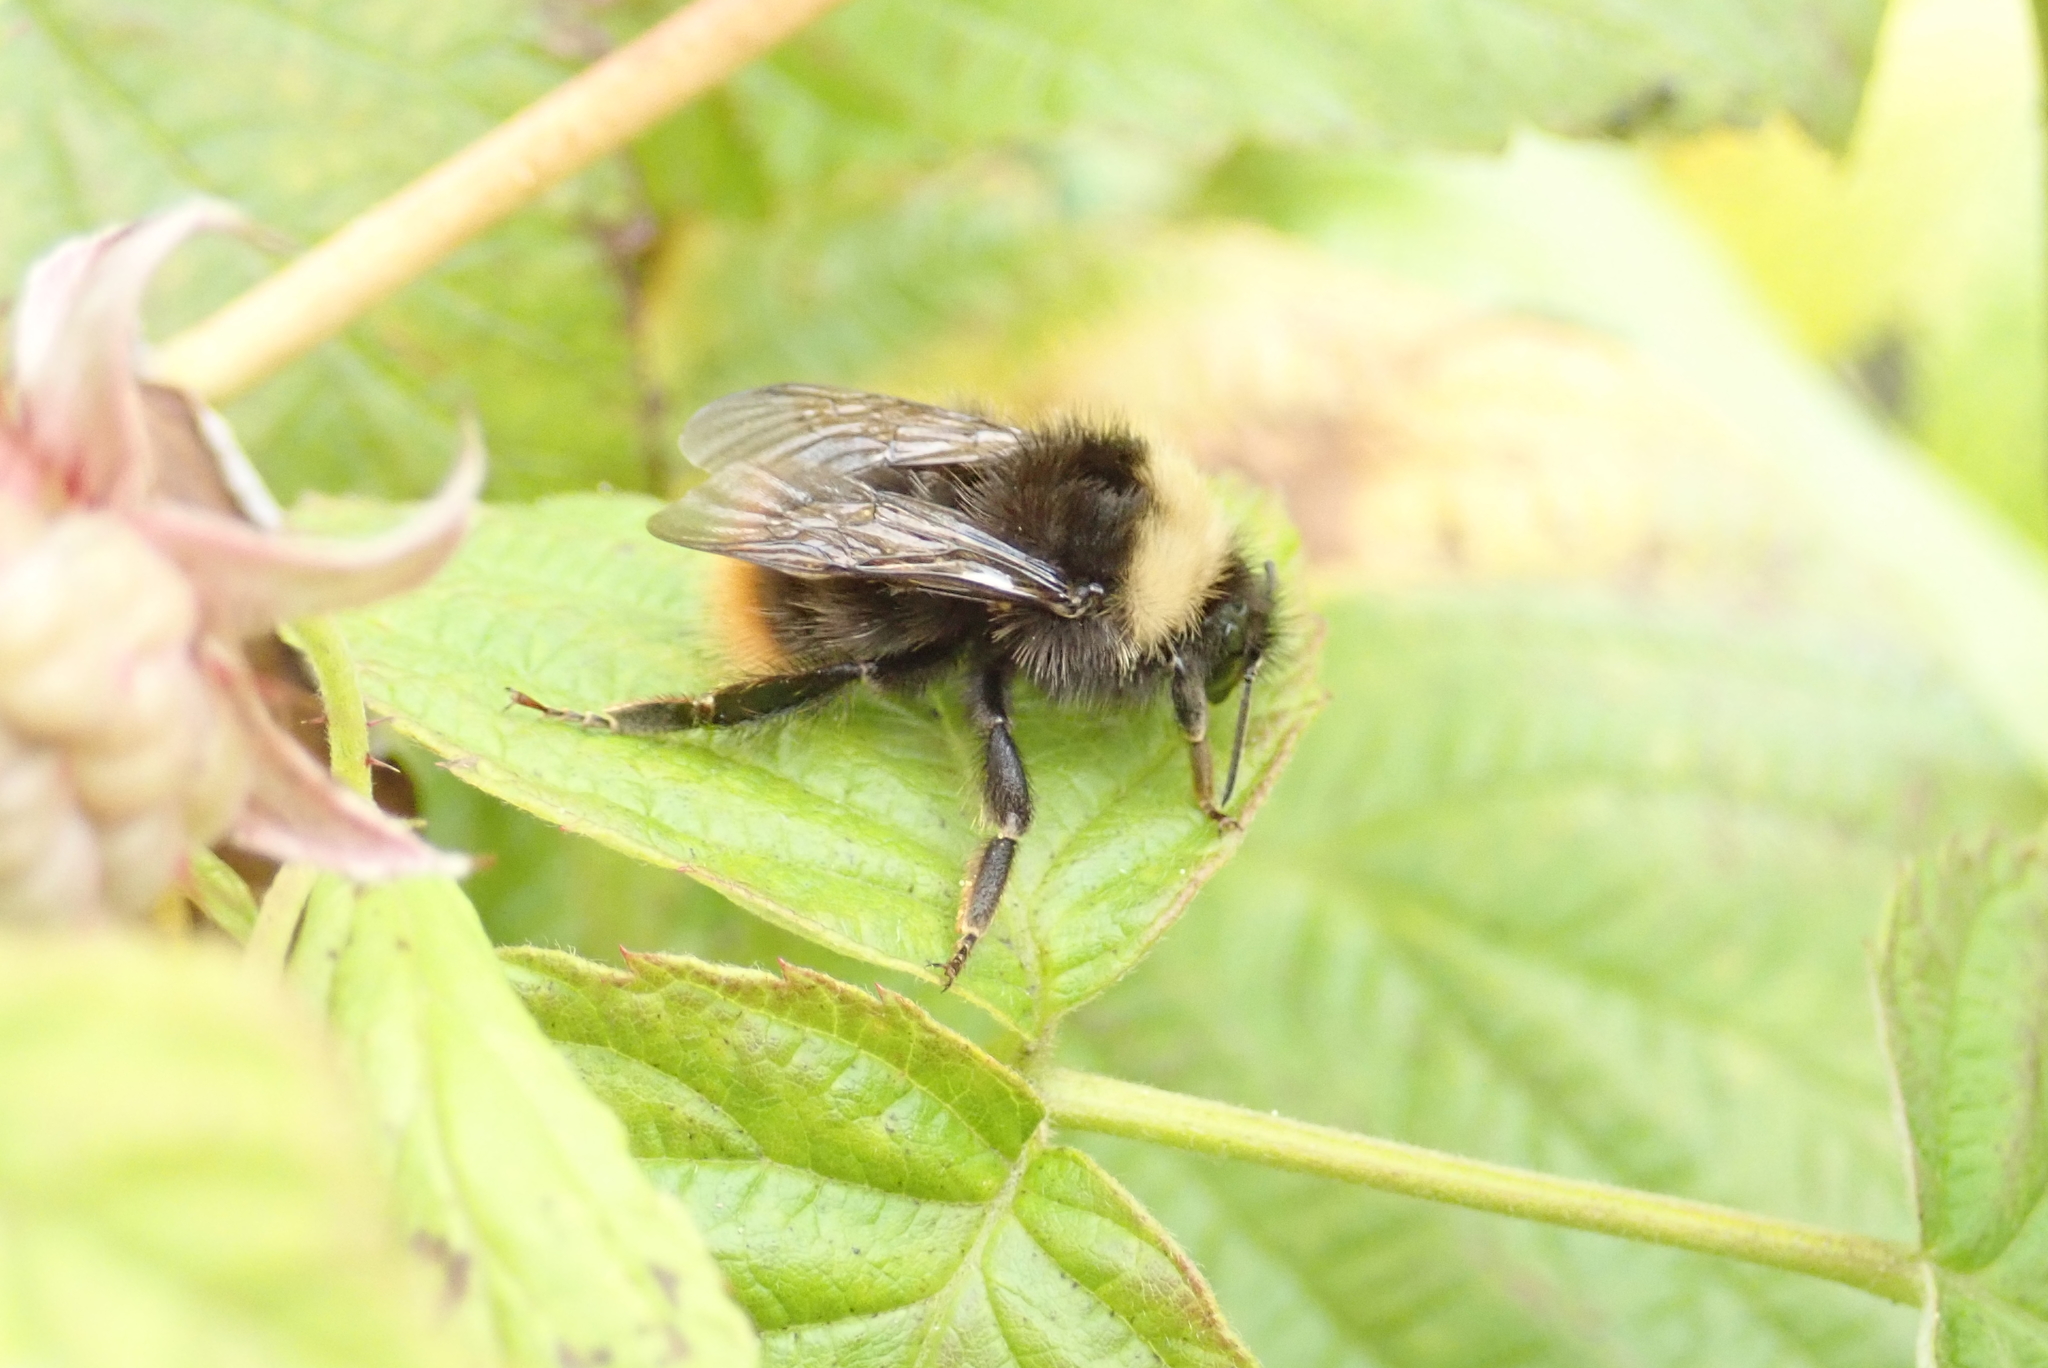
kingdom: Animalia
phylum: Arthropoda
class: Insecta
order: Hymenoptera
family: Apidae
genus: Bombus
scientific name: Bombus pratorum
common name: Early humble-bee
